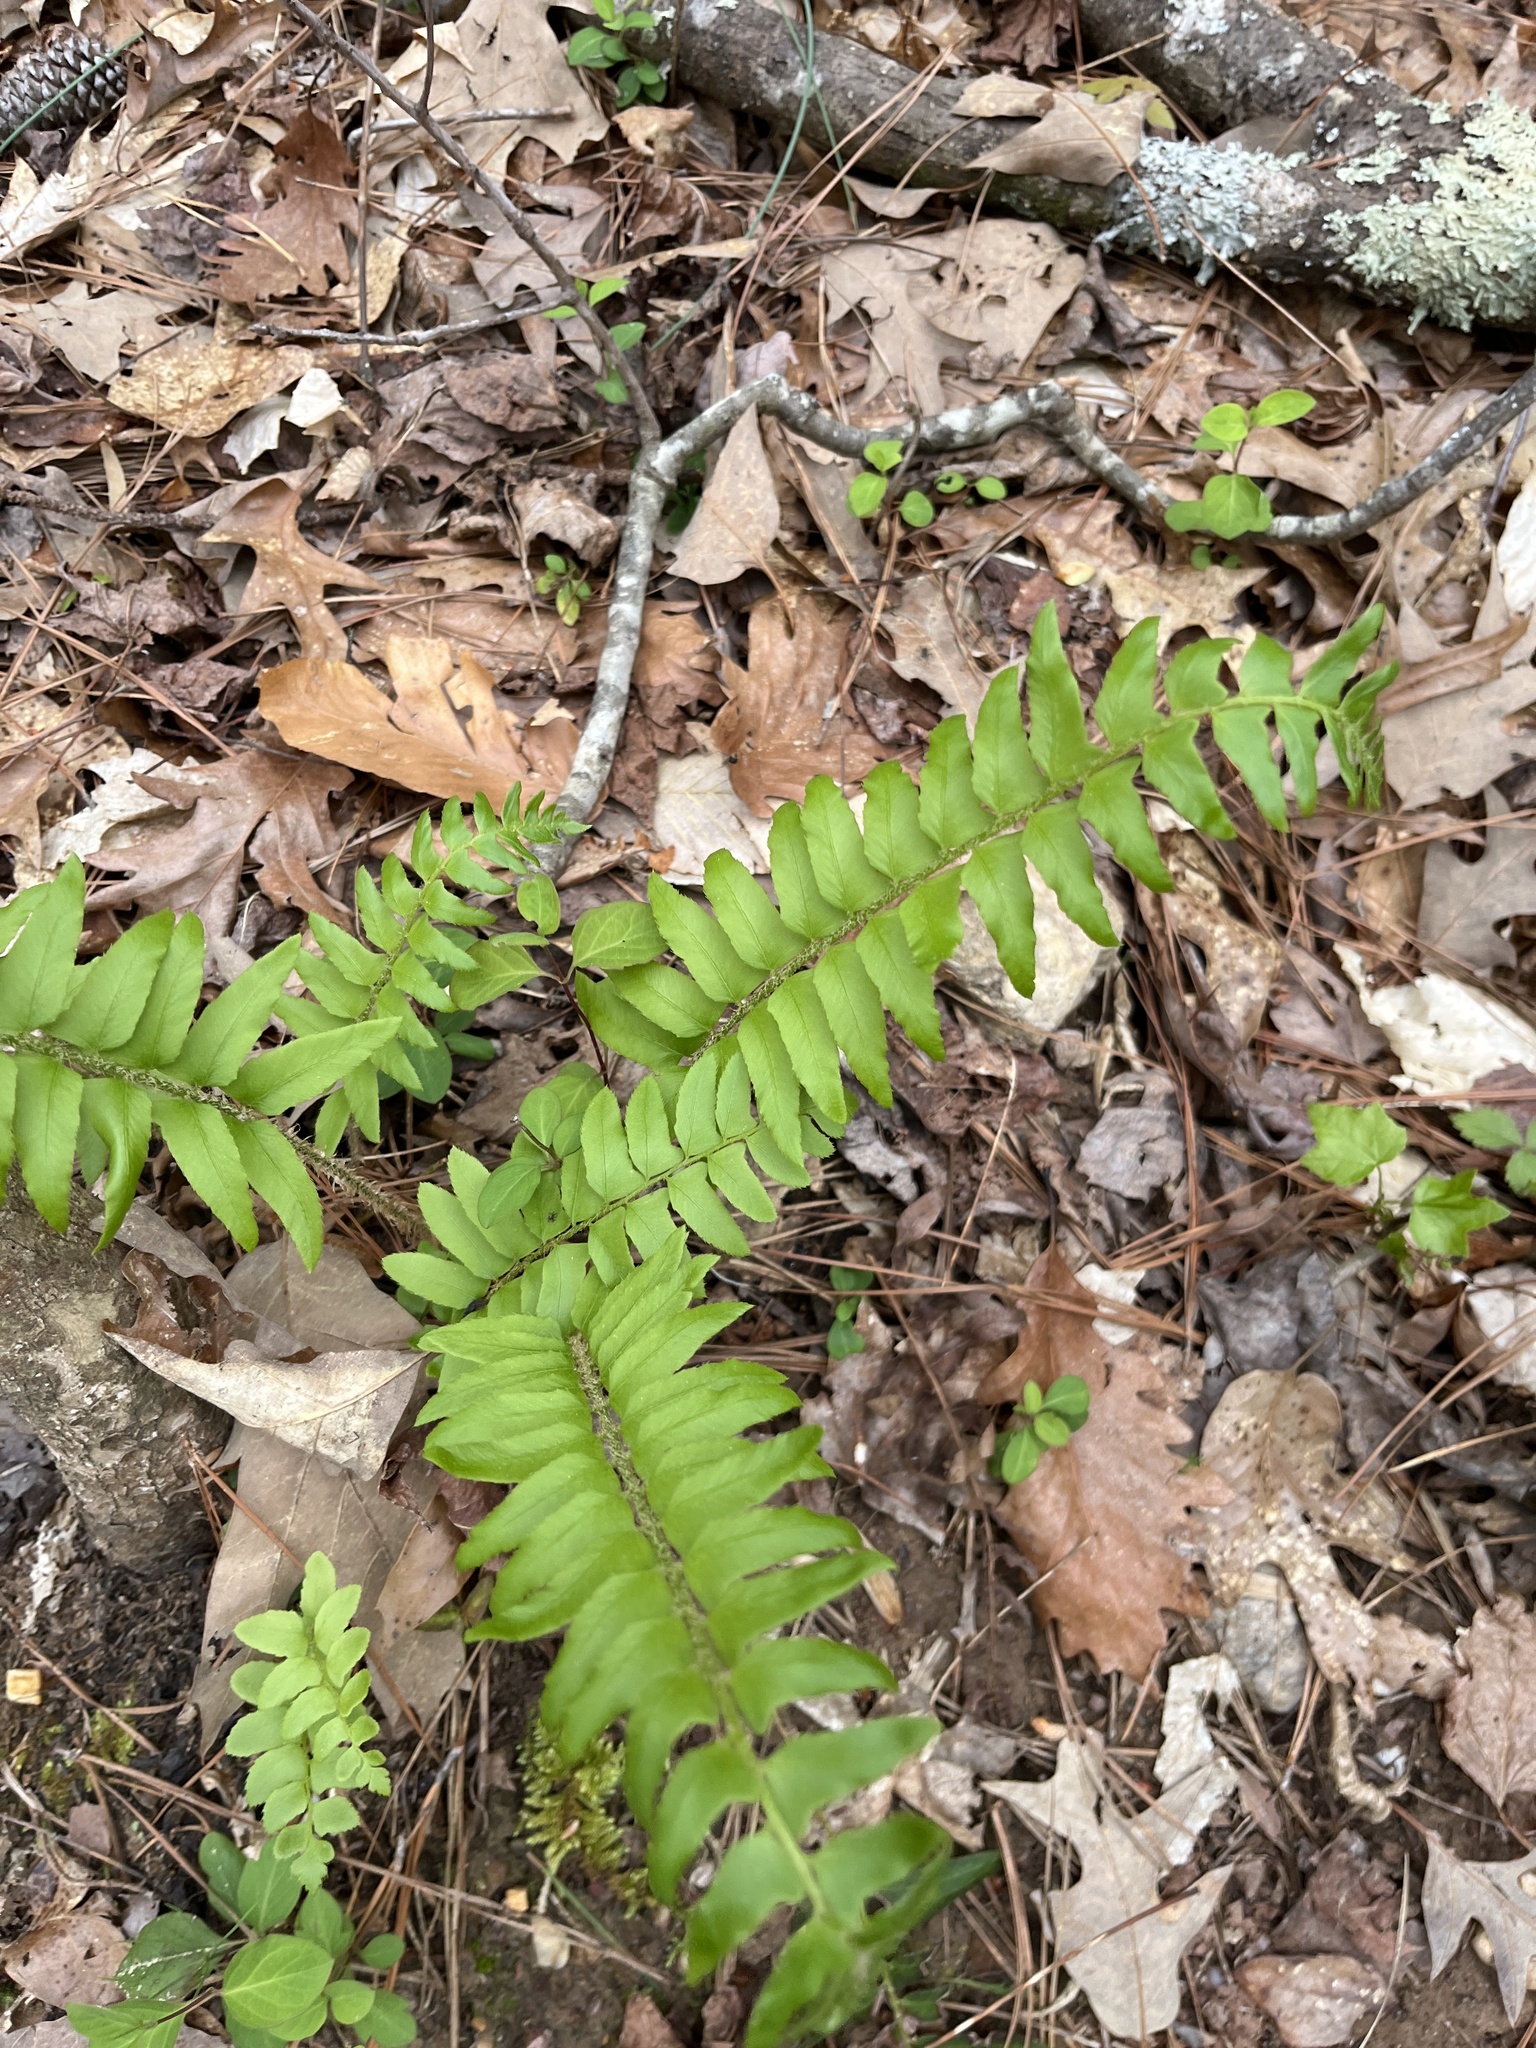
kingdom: Plantae
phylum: Tracheophyta
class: Polypodiopsida
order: Polypodiales
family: Dryopteridaceae
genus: Polystichum
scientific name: Polystichum acrostichoides
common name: Christmas fern
